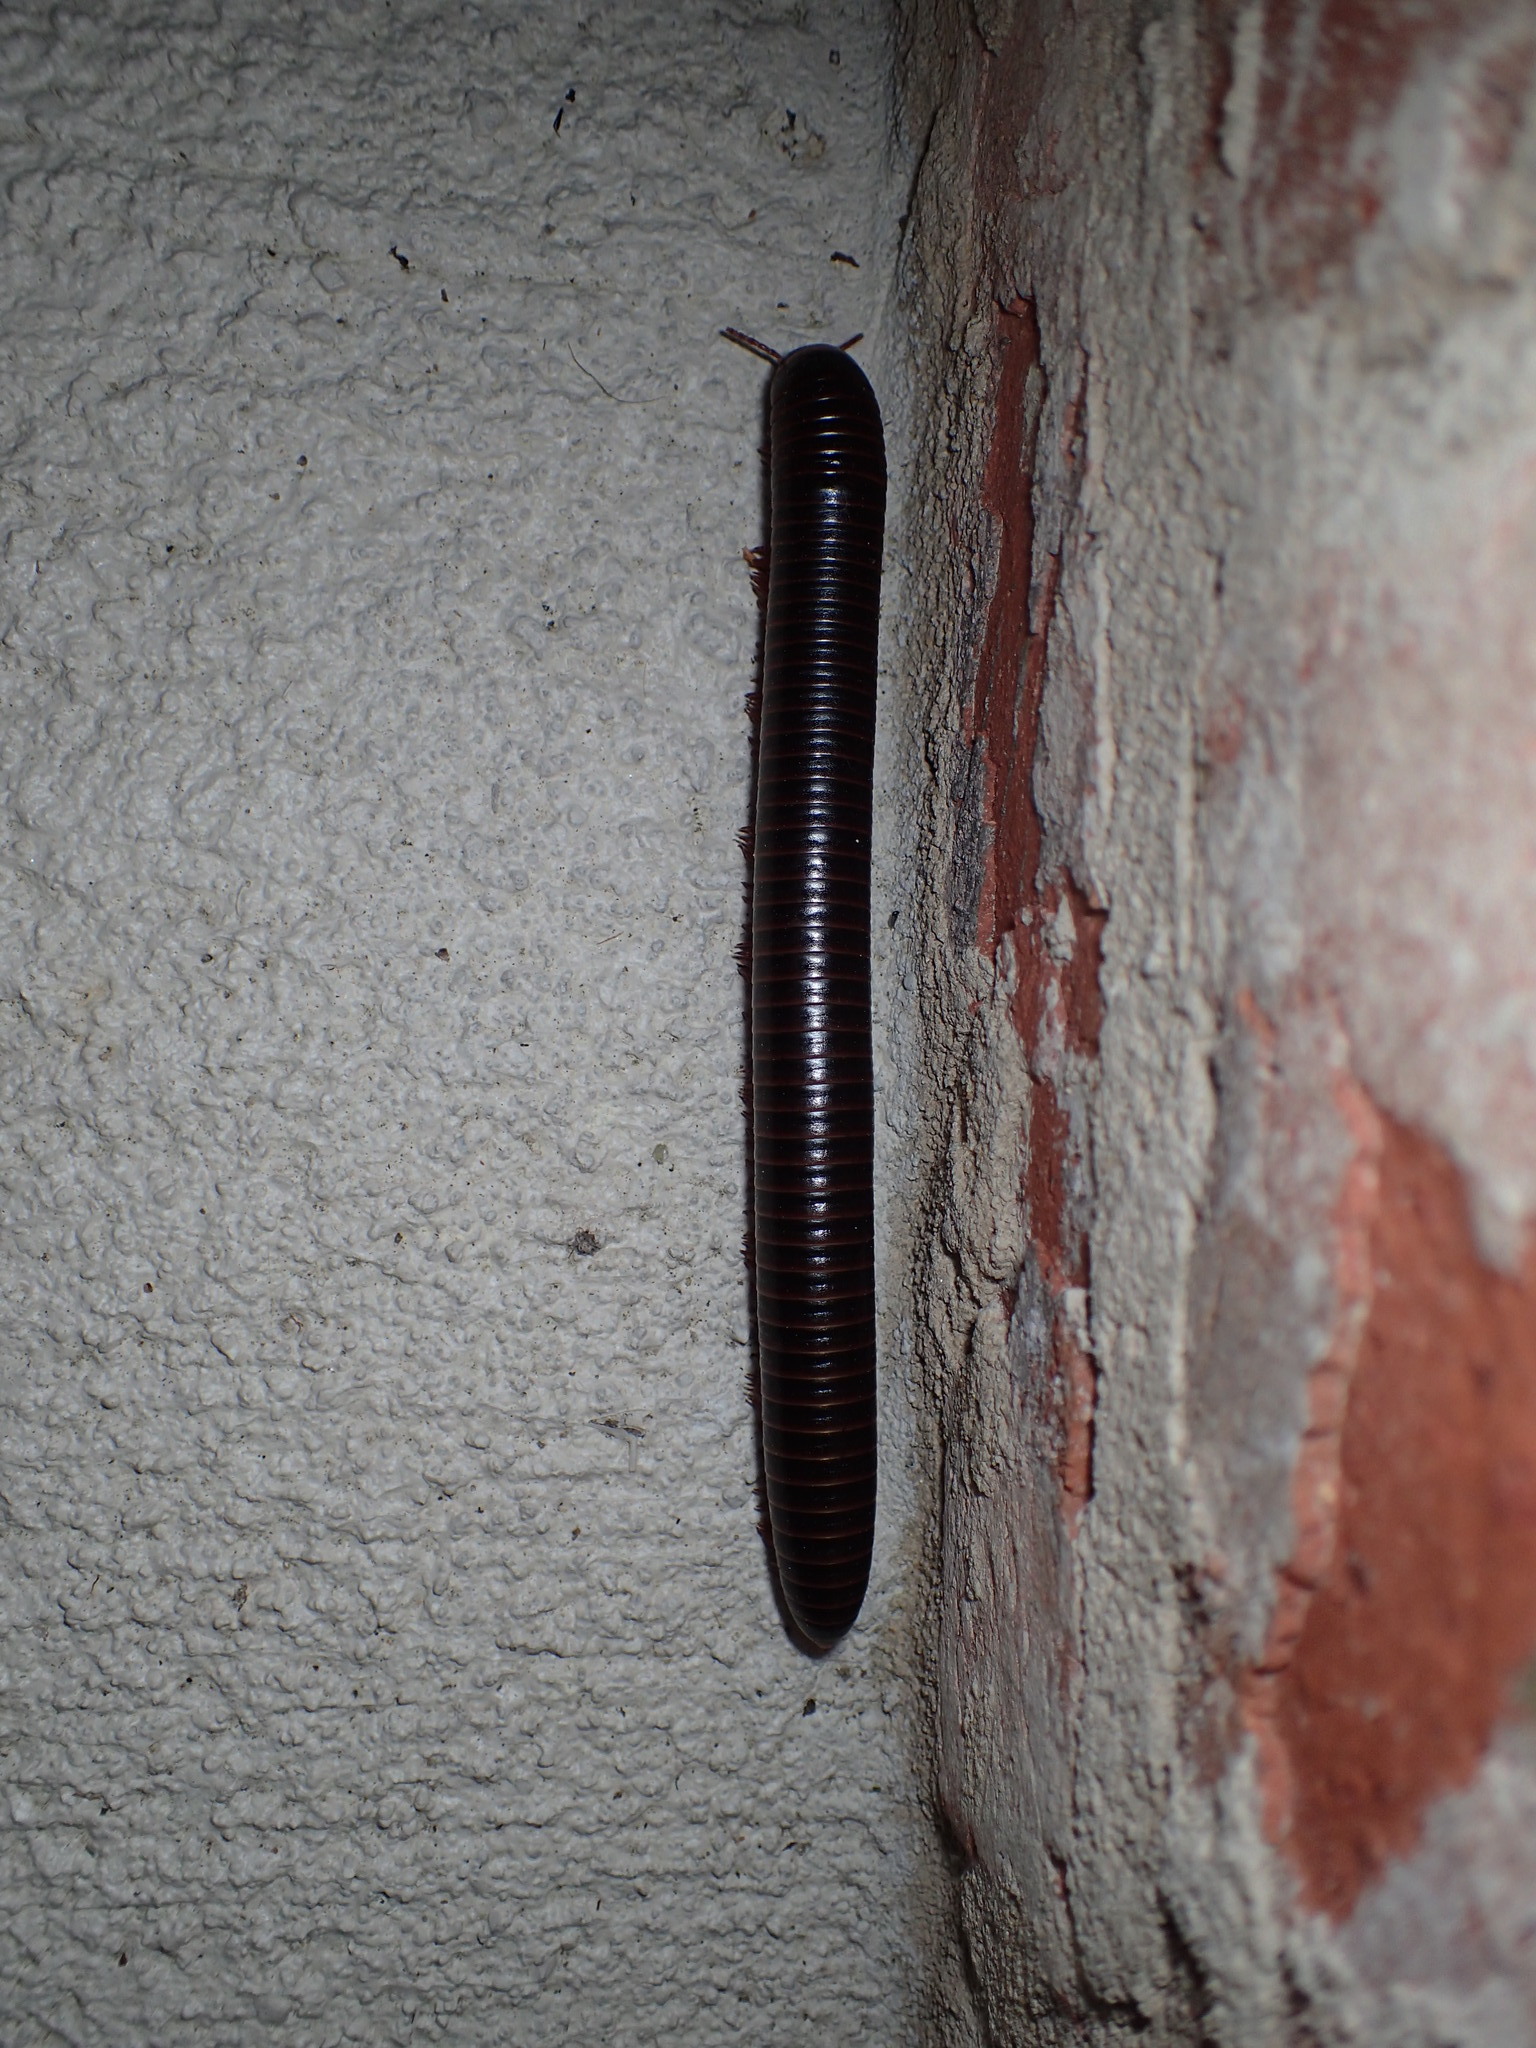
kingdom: Animalia
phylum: Arthropoda
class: Diplopoda
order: Spirobolida
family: Spirobolidae
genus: Narceus
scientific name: Narceus
